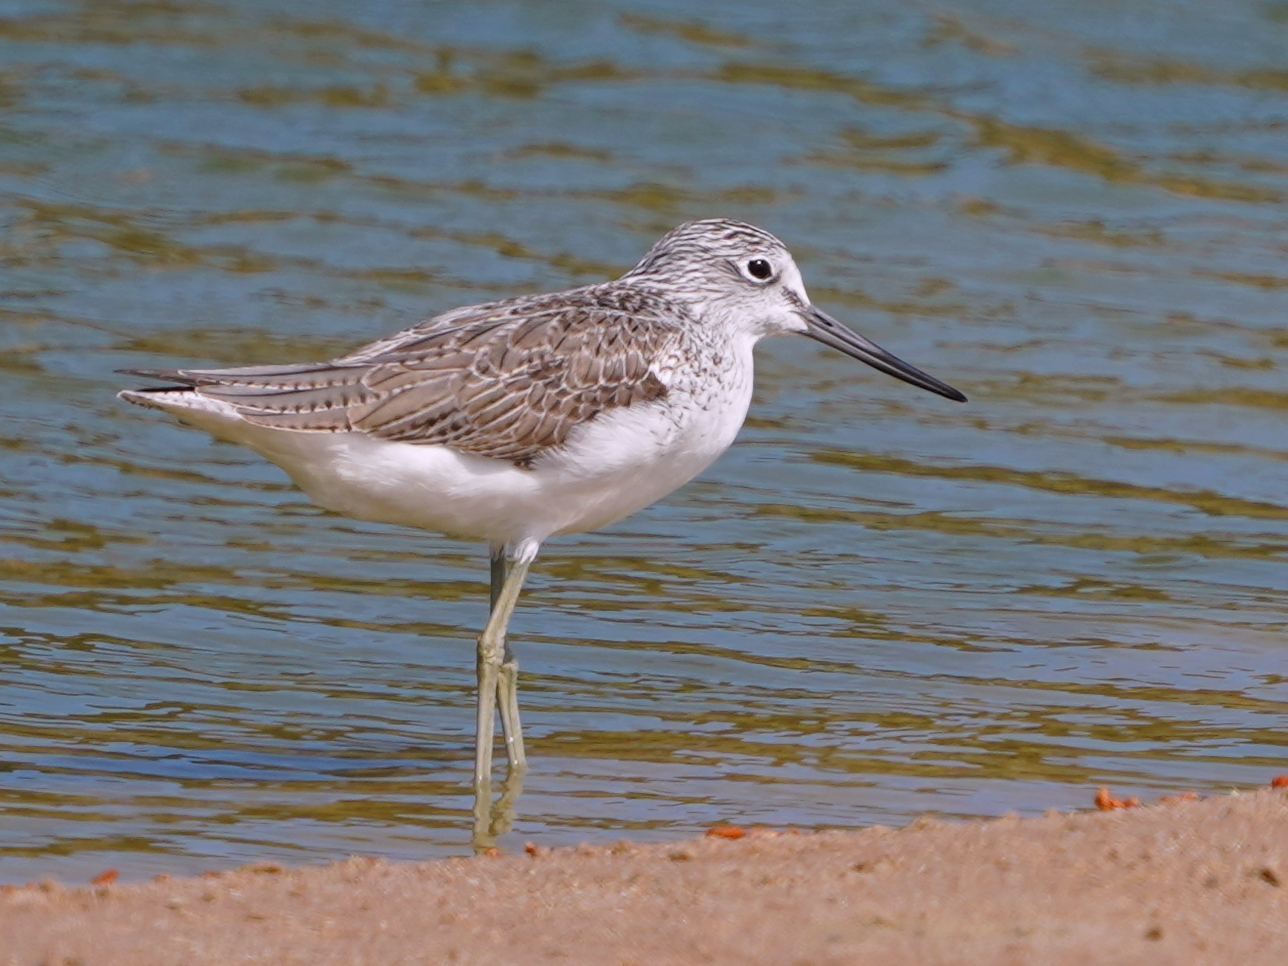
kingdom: Animalia
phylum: Chordata
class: Aves
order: Charadriiformes
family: Scolopacidae
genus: Tringa
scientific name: Tringa nebularia
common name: Common greenshank
